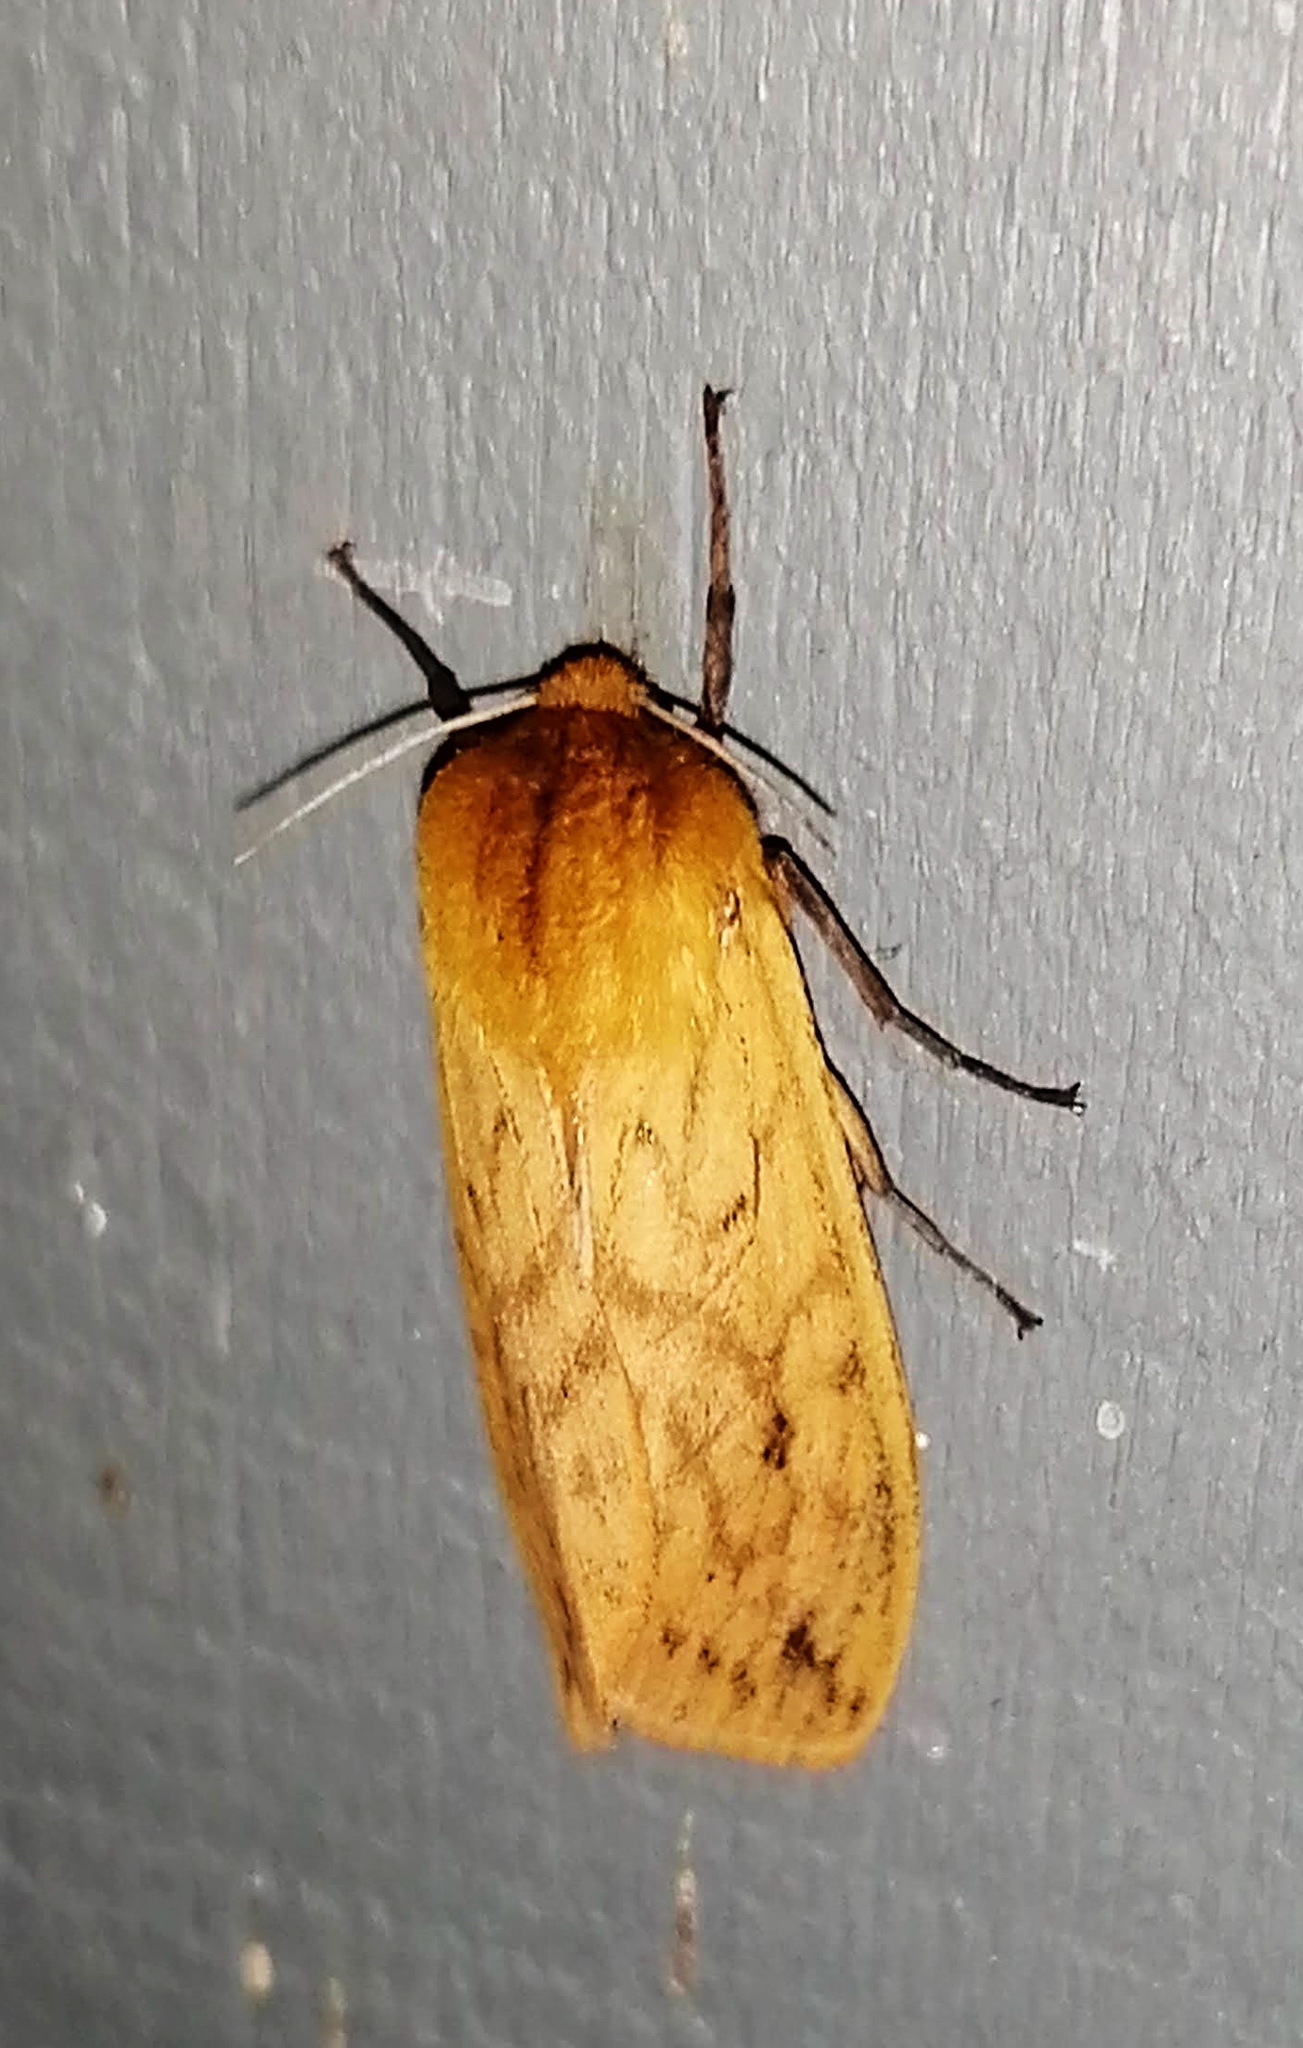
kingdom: Animalia
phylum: Arthropoda
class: Insecta
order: Lepidoptera
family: Erebidae
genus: Pyrrharctia
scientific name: Pyrrharctia isabella
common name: Isabella tiger moth
